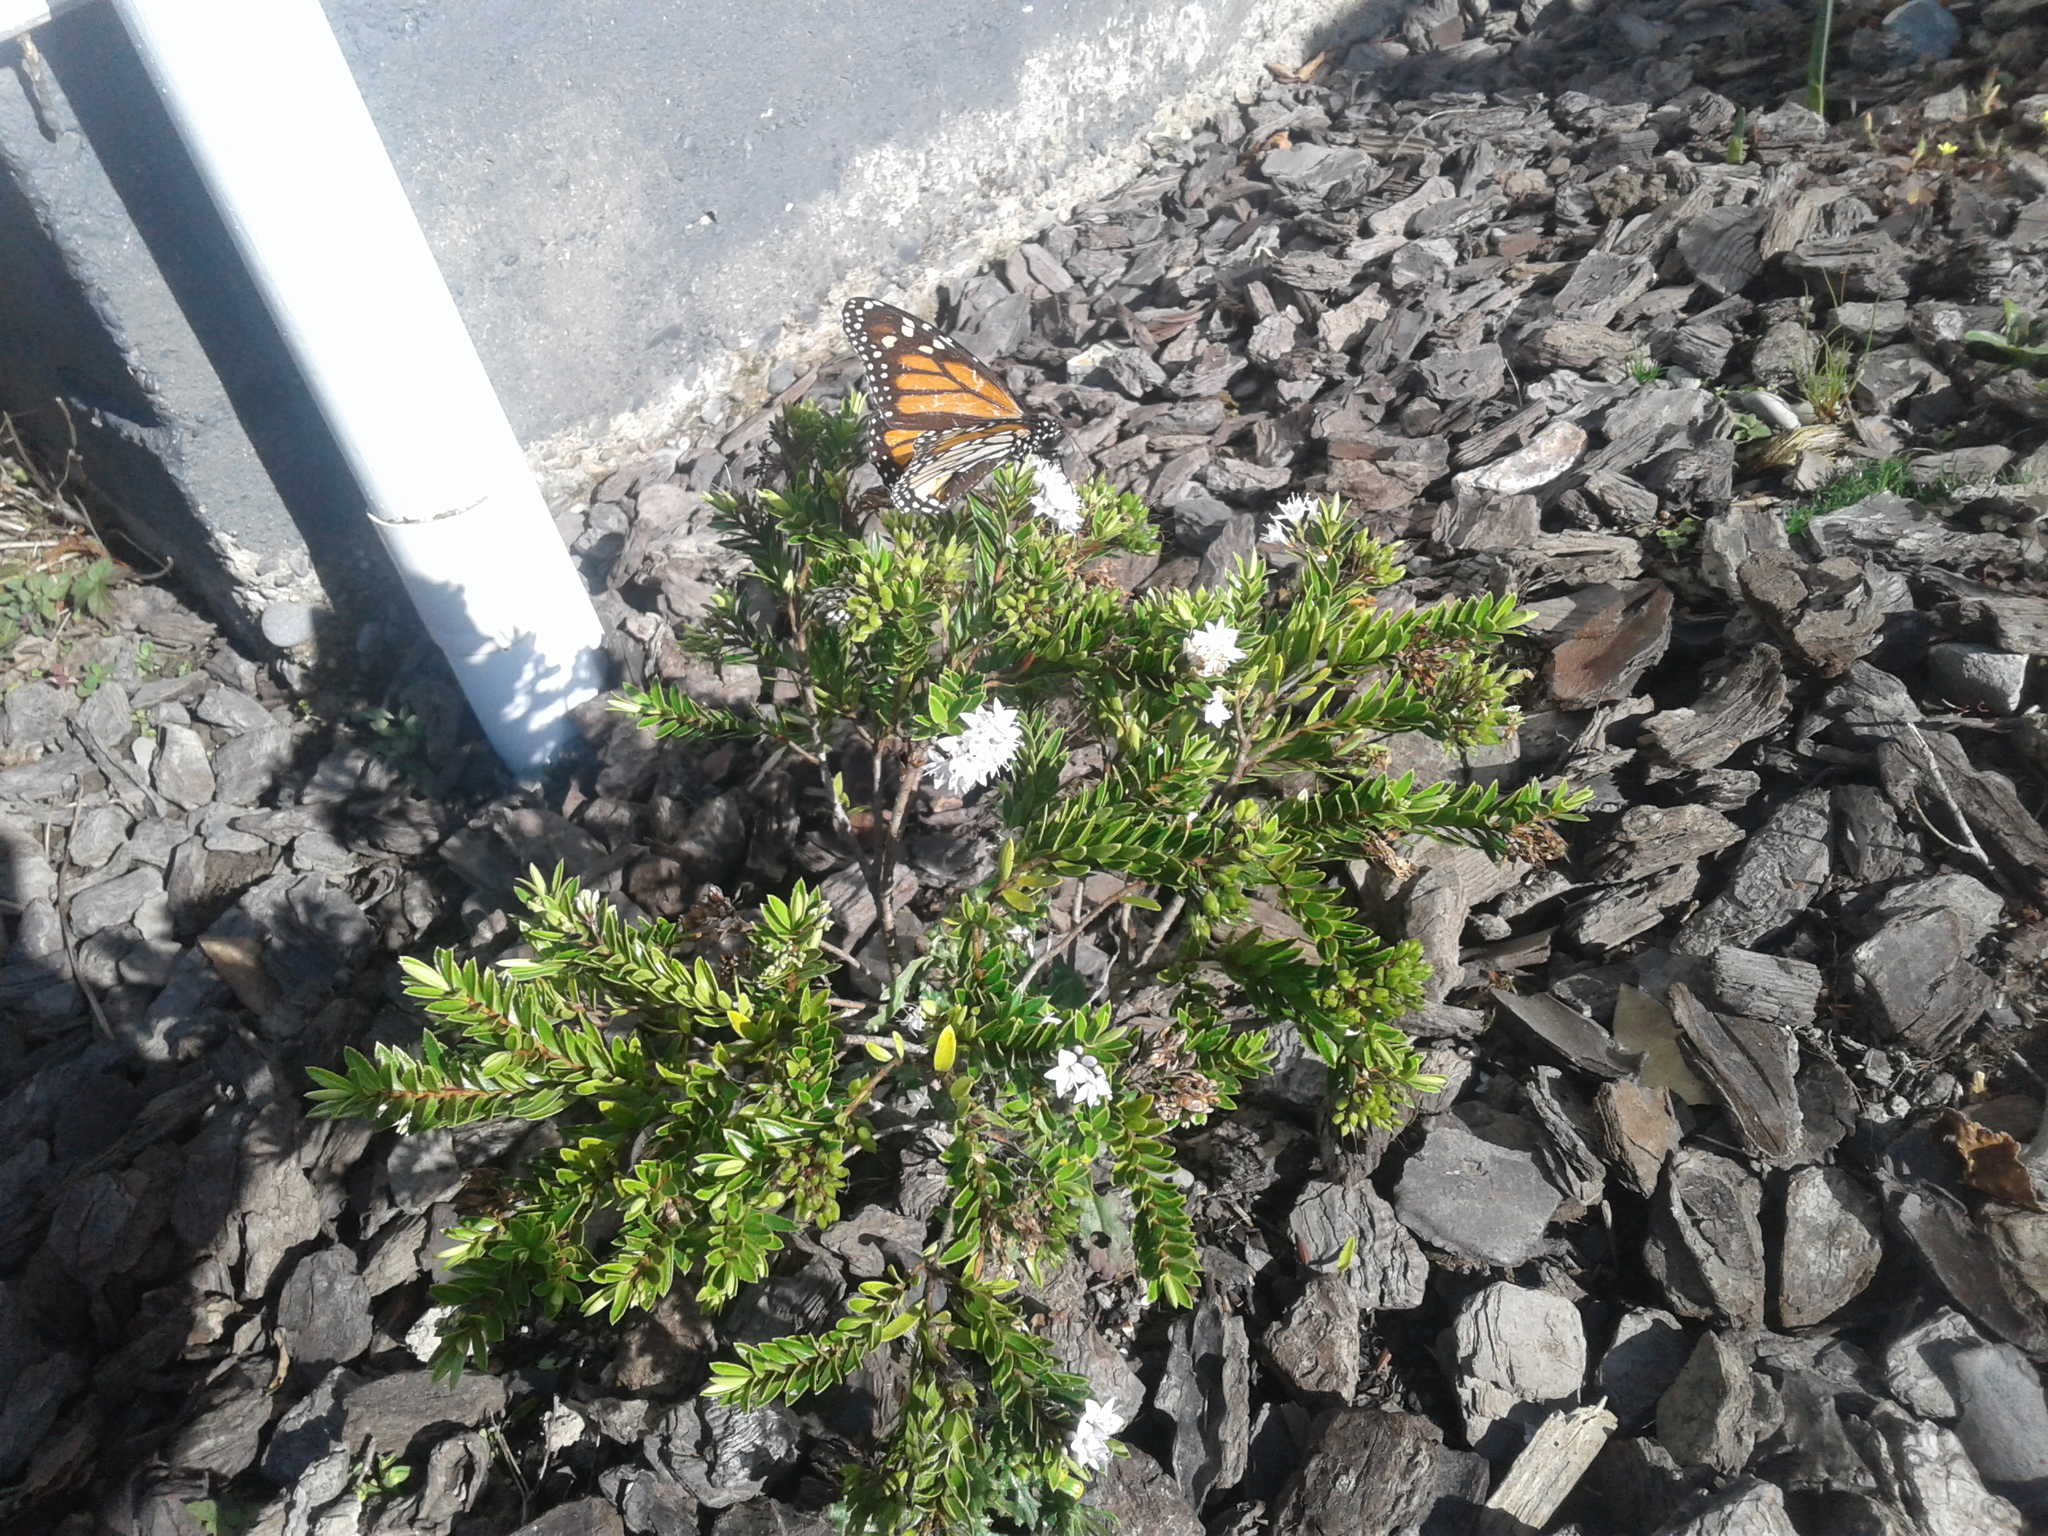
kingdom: Animalia
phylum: Arthropoda
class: Insecta
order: Lepidoptera
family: Nymphalidae
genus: Danaus
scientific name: Danaus plexippus
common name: Monarch
